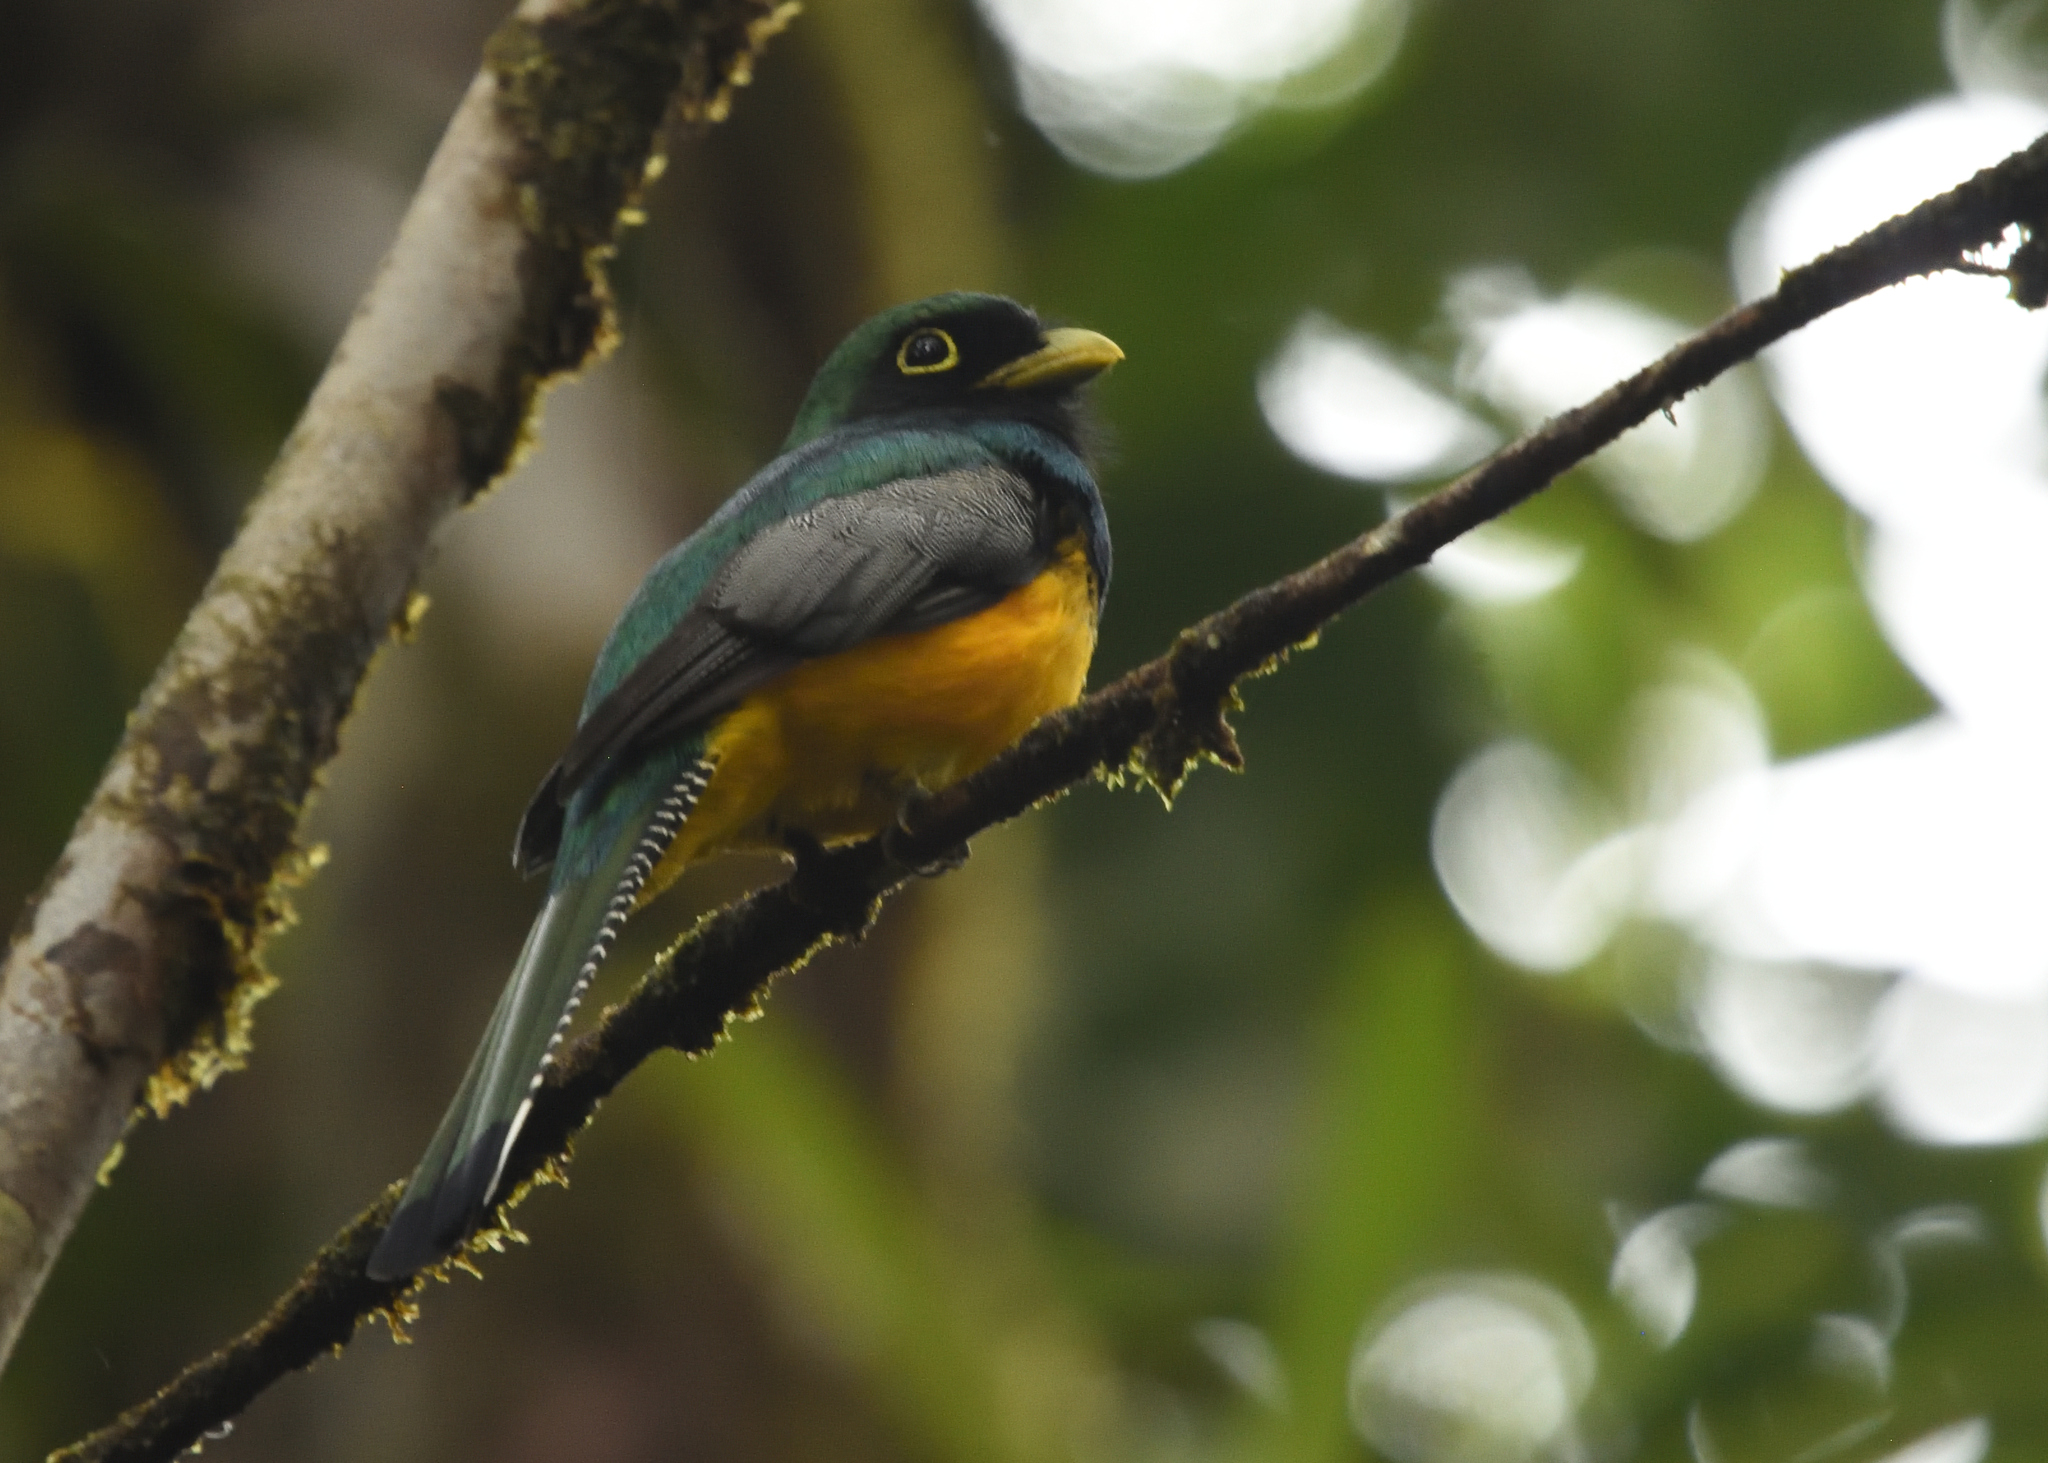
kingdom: Animalia
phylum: Chordata
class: Aves
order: Trogoniformes
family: Trogonidae
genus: Trogon
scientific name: Trogon rufus
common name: Black-throated trogon
